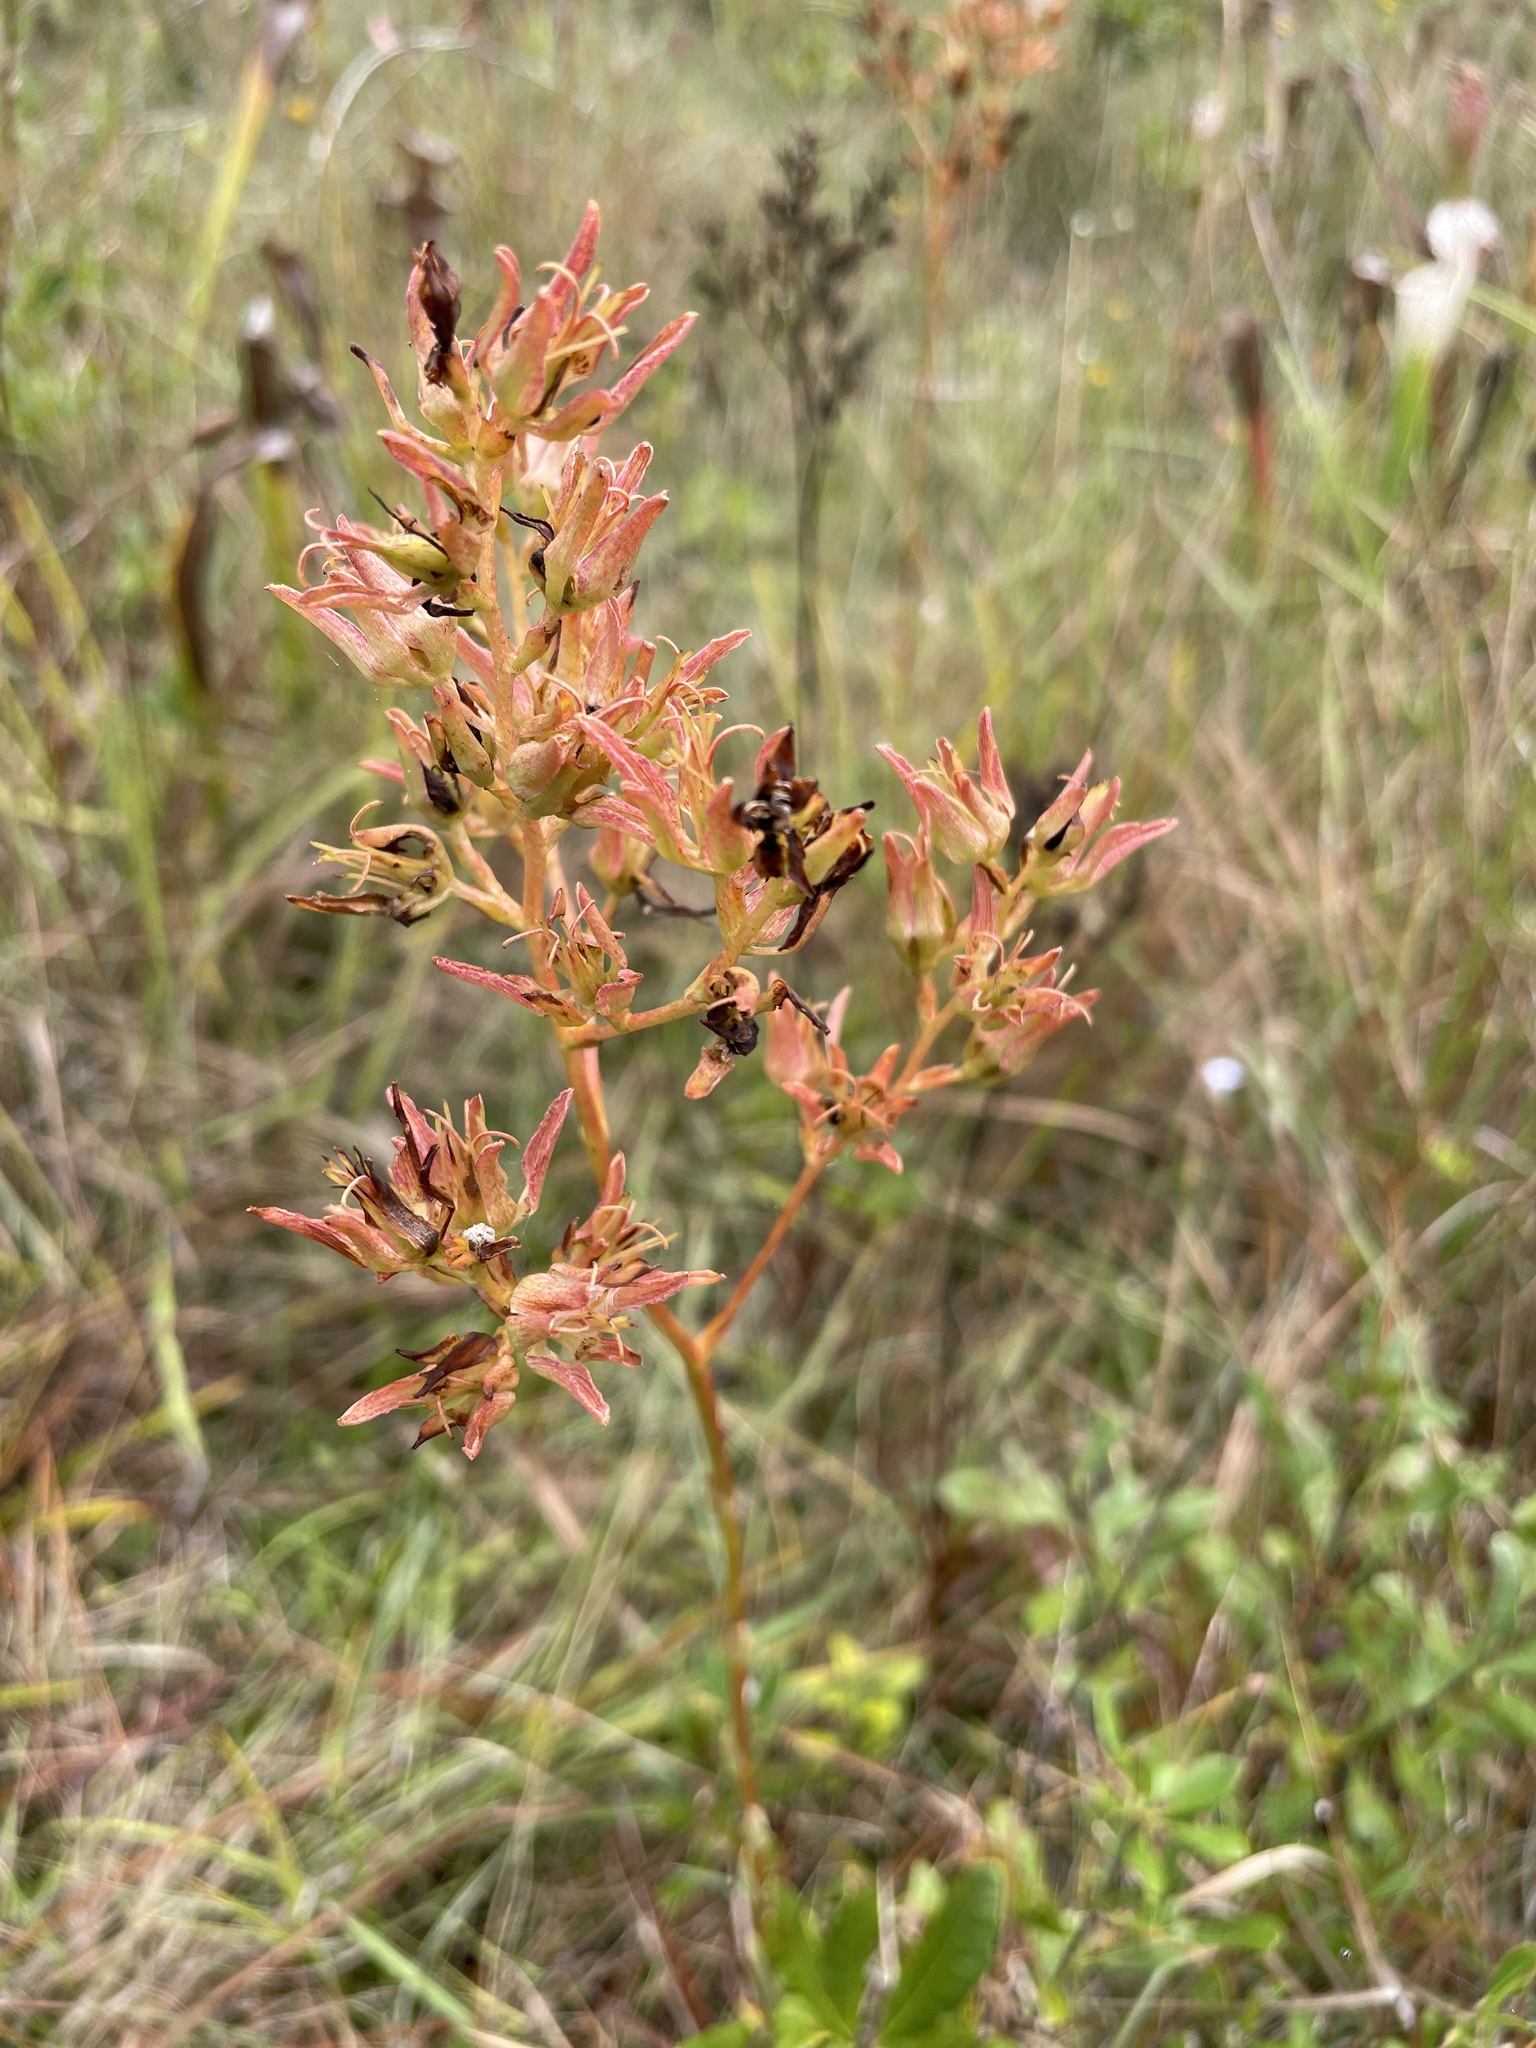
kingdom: Plantae
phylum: Tracheophyta
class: Liliopsida
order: Liliales
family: Melanthiaceae
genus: Zigadenus
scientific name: Zigadenus glaberrimus
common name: Sandbog death camas
